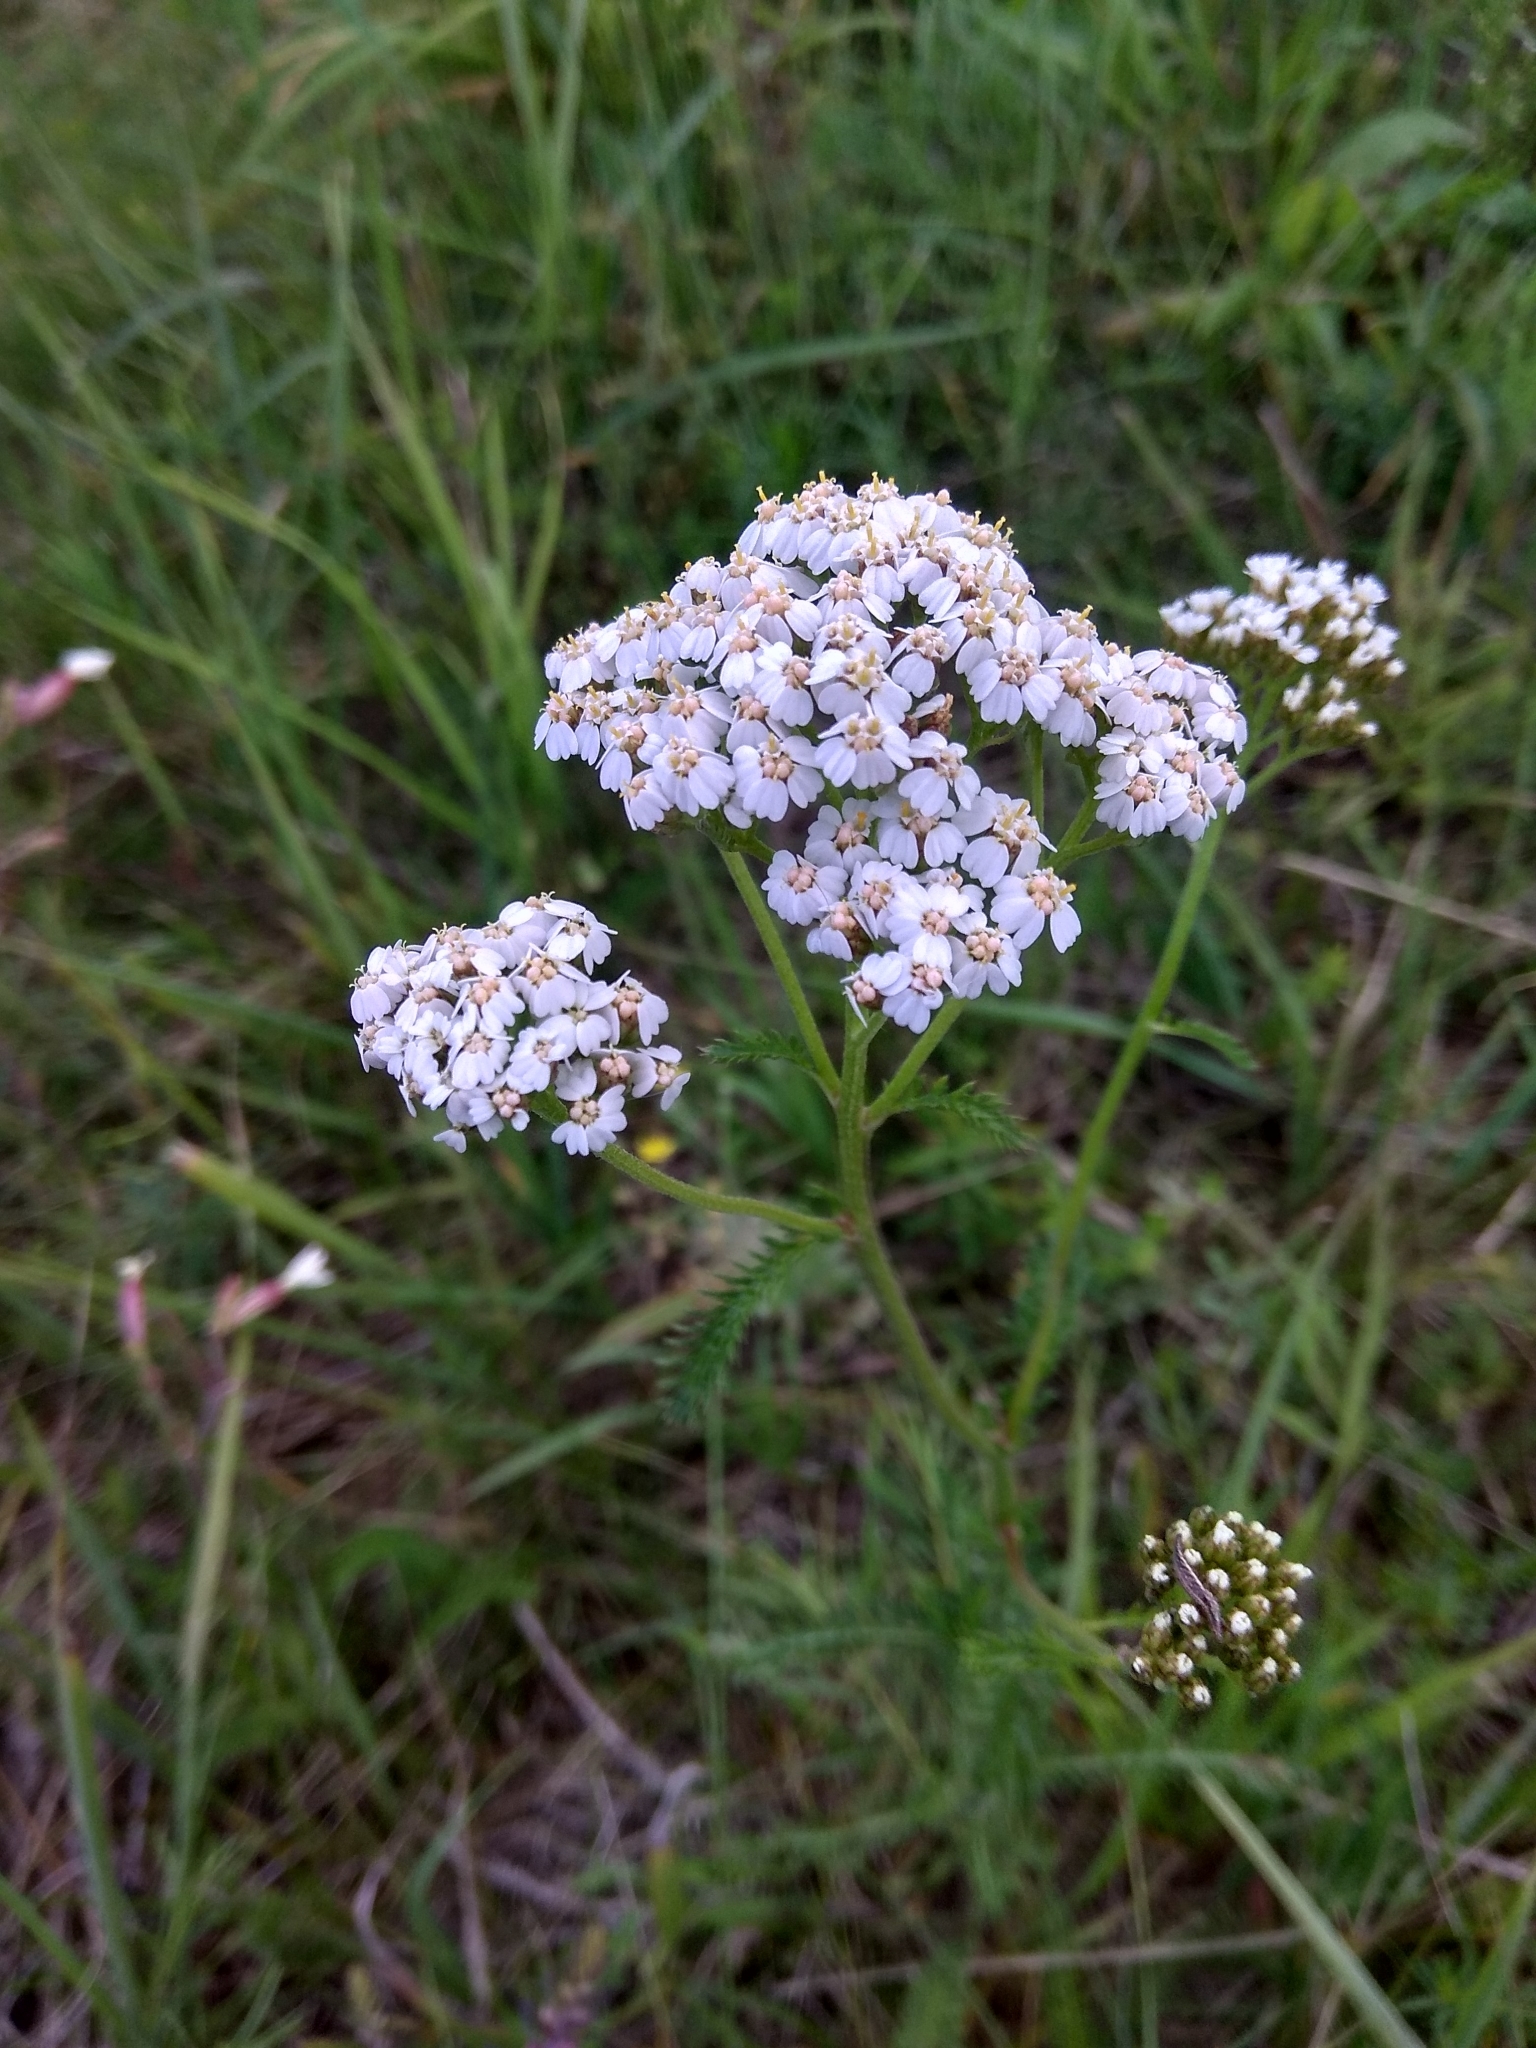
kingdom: Plantae
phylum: Tracheophyta
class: Magnoliopsida
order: Asterales
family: Asteraceae
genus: Achillea
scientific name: Achillea millefolium
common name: Yarrow
